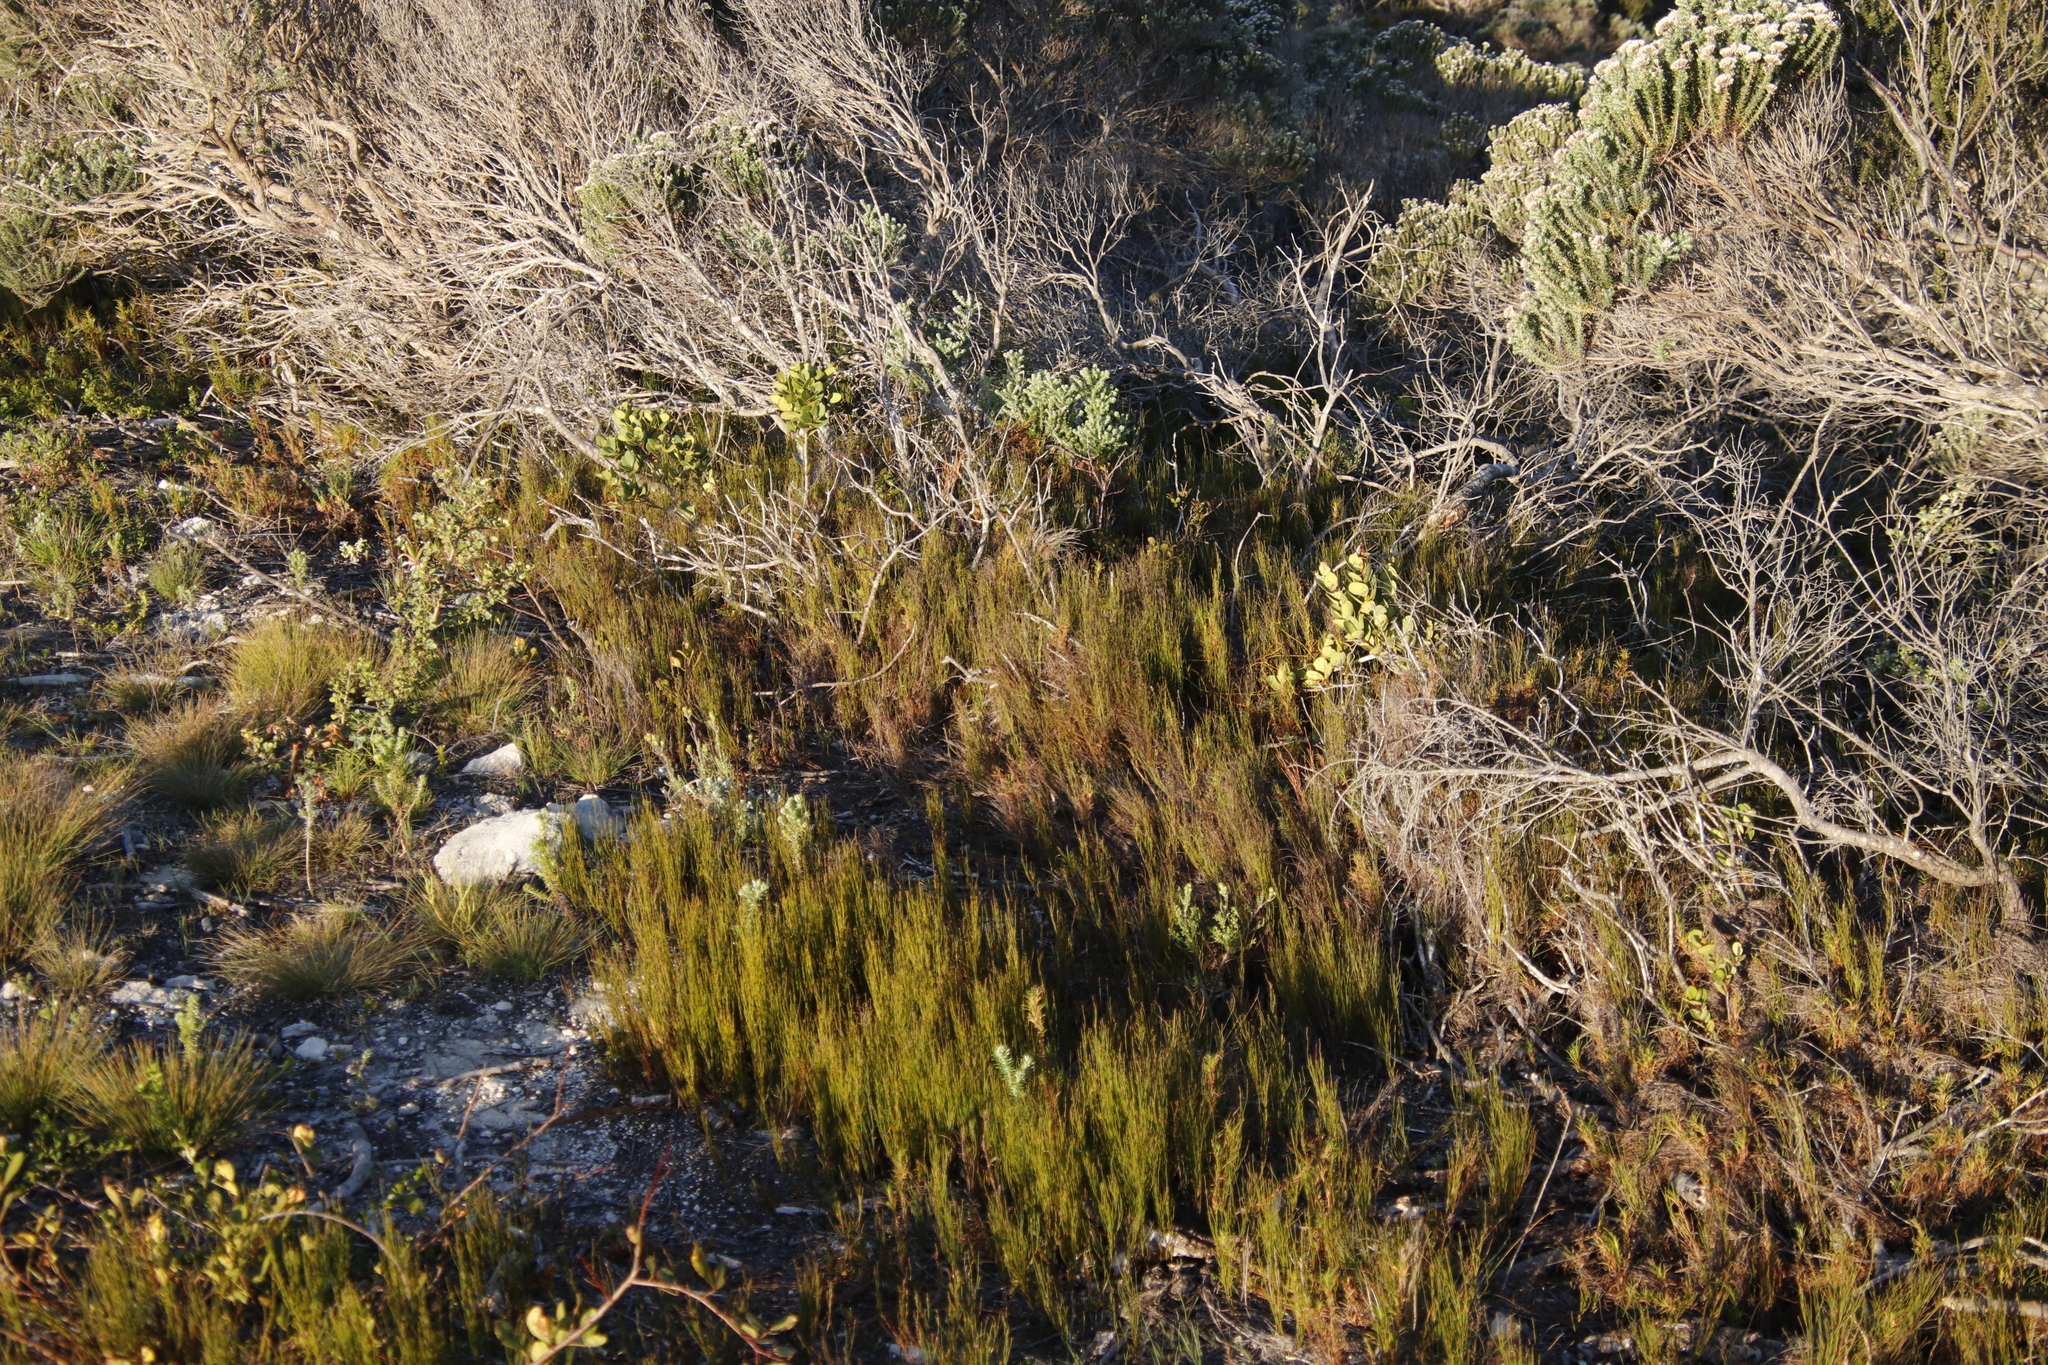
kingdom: Plantae
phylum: Tracheophyta
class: Liliopsida
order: Poales
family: Restionaceae
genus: Restio
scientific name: Restio eleocharis
